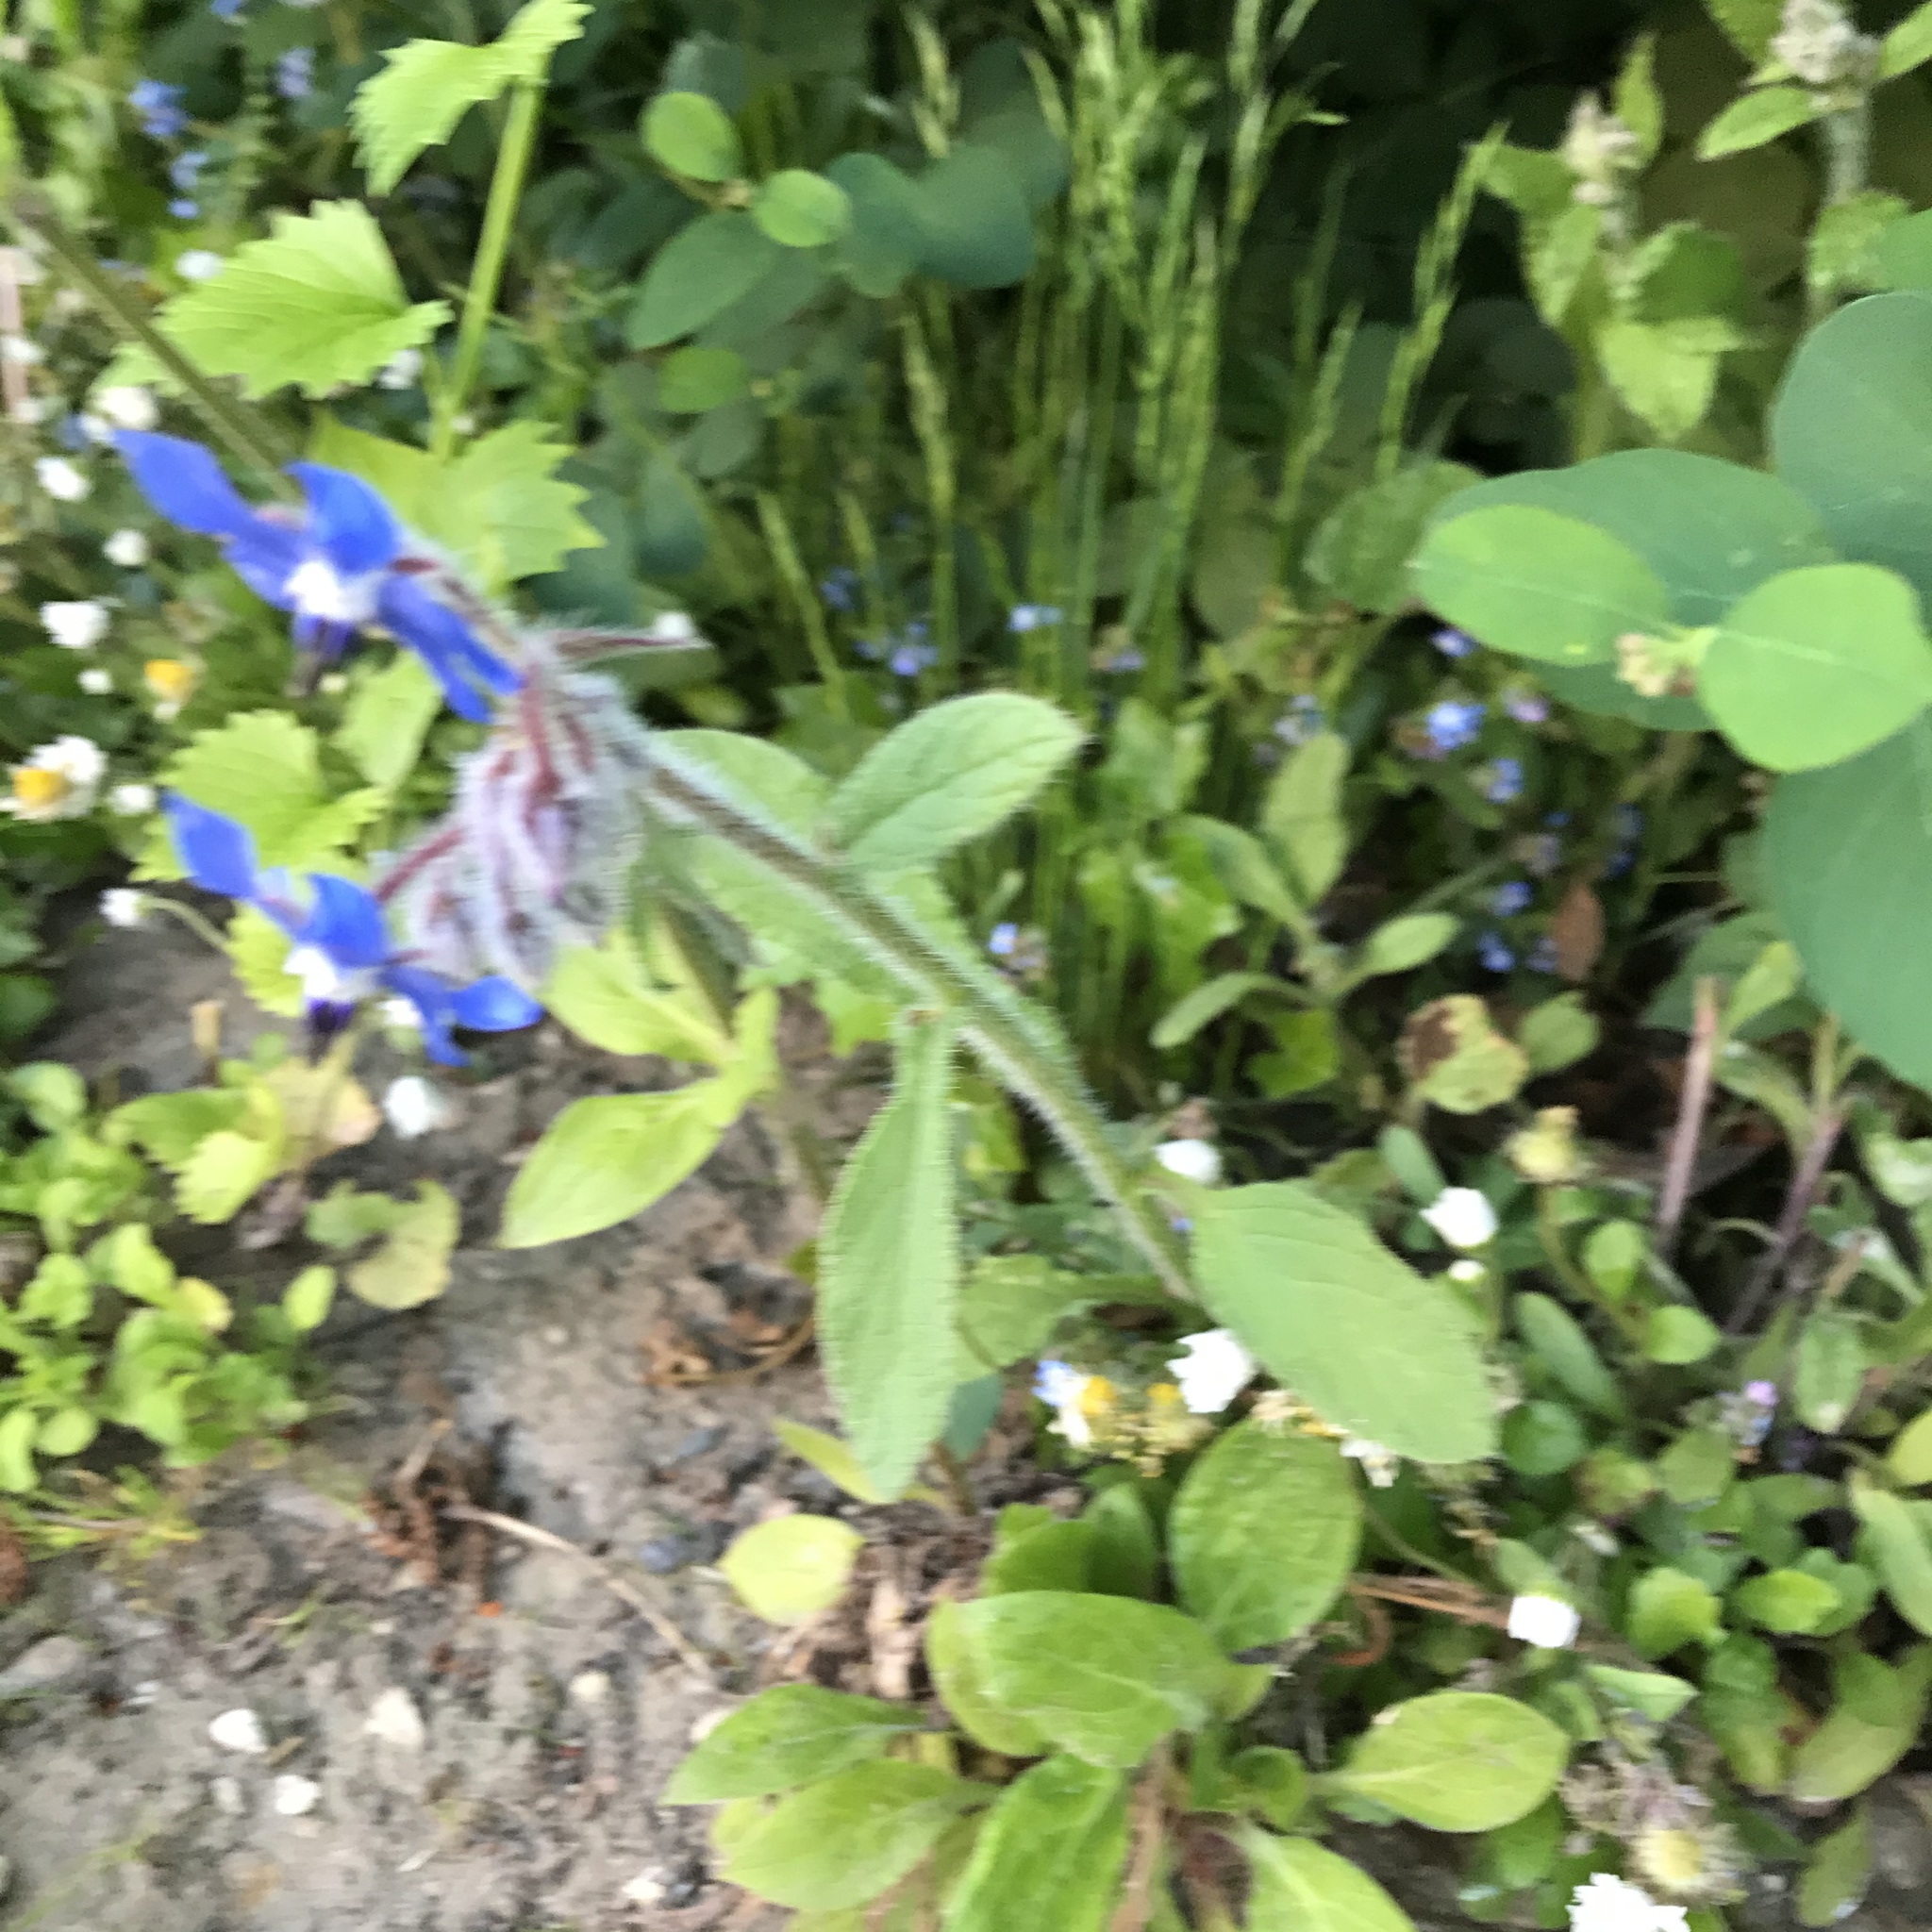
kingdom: Plantae
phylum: Tracheophyta
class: Magnoliopsida
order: Boraginales
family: Boraginaceae
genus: Borago
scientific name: Borago officinalis
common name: Borage
